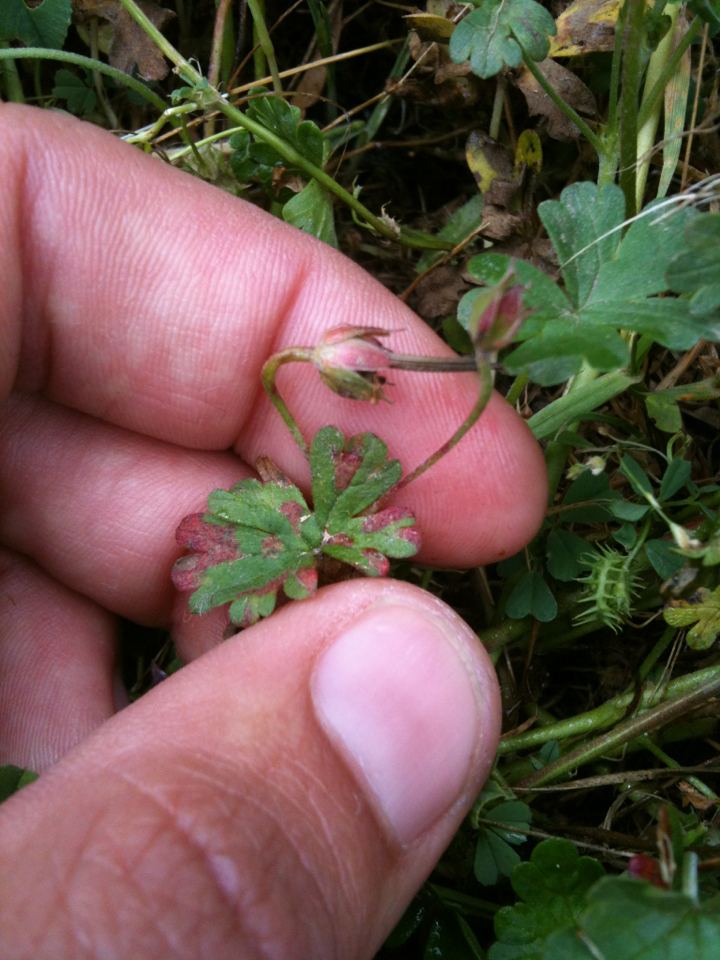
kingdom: Plantae
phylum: Tracheophyta
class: Magnoliopsida
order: Geraniales
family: Geraniaceae
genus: Geranium
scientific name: Geranium
